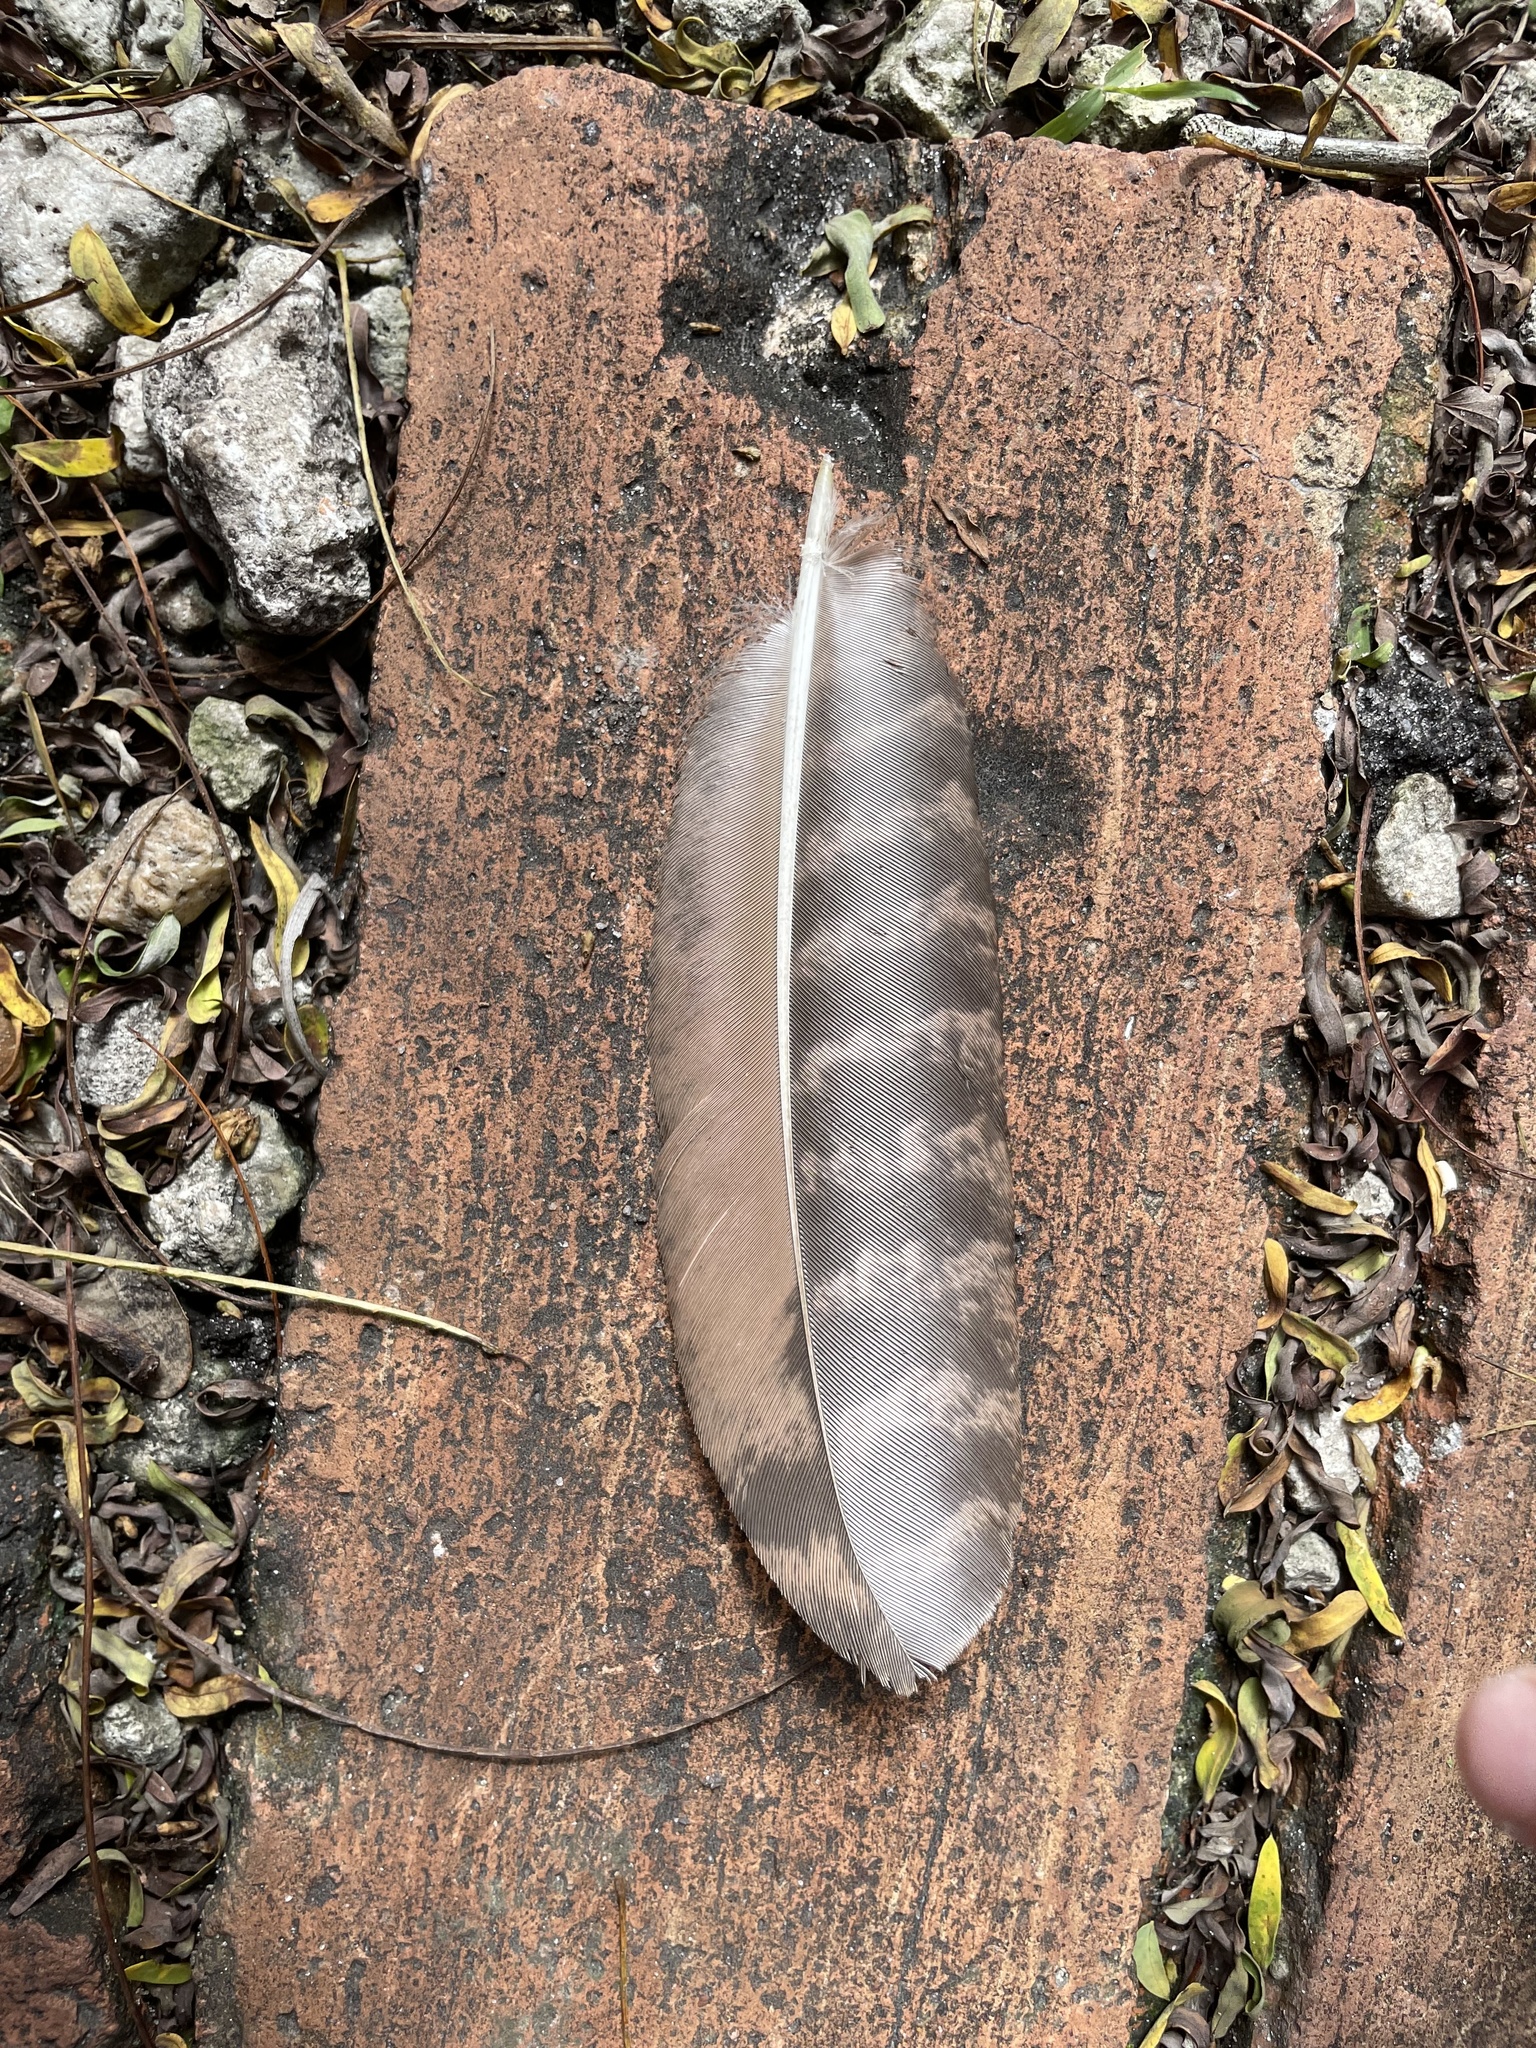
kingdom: Animalia
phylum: Chordata
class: Aves
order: Galliformes
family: Phasianidae
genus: Pavo
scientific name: Pavo cristatus
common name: Indian peafowl
